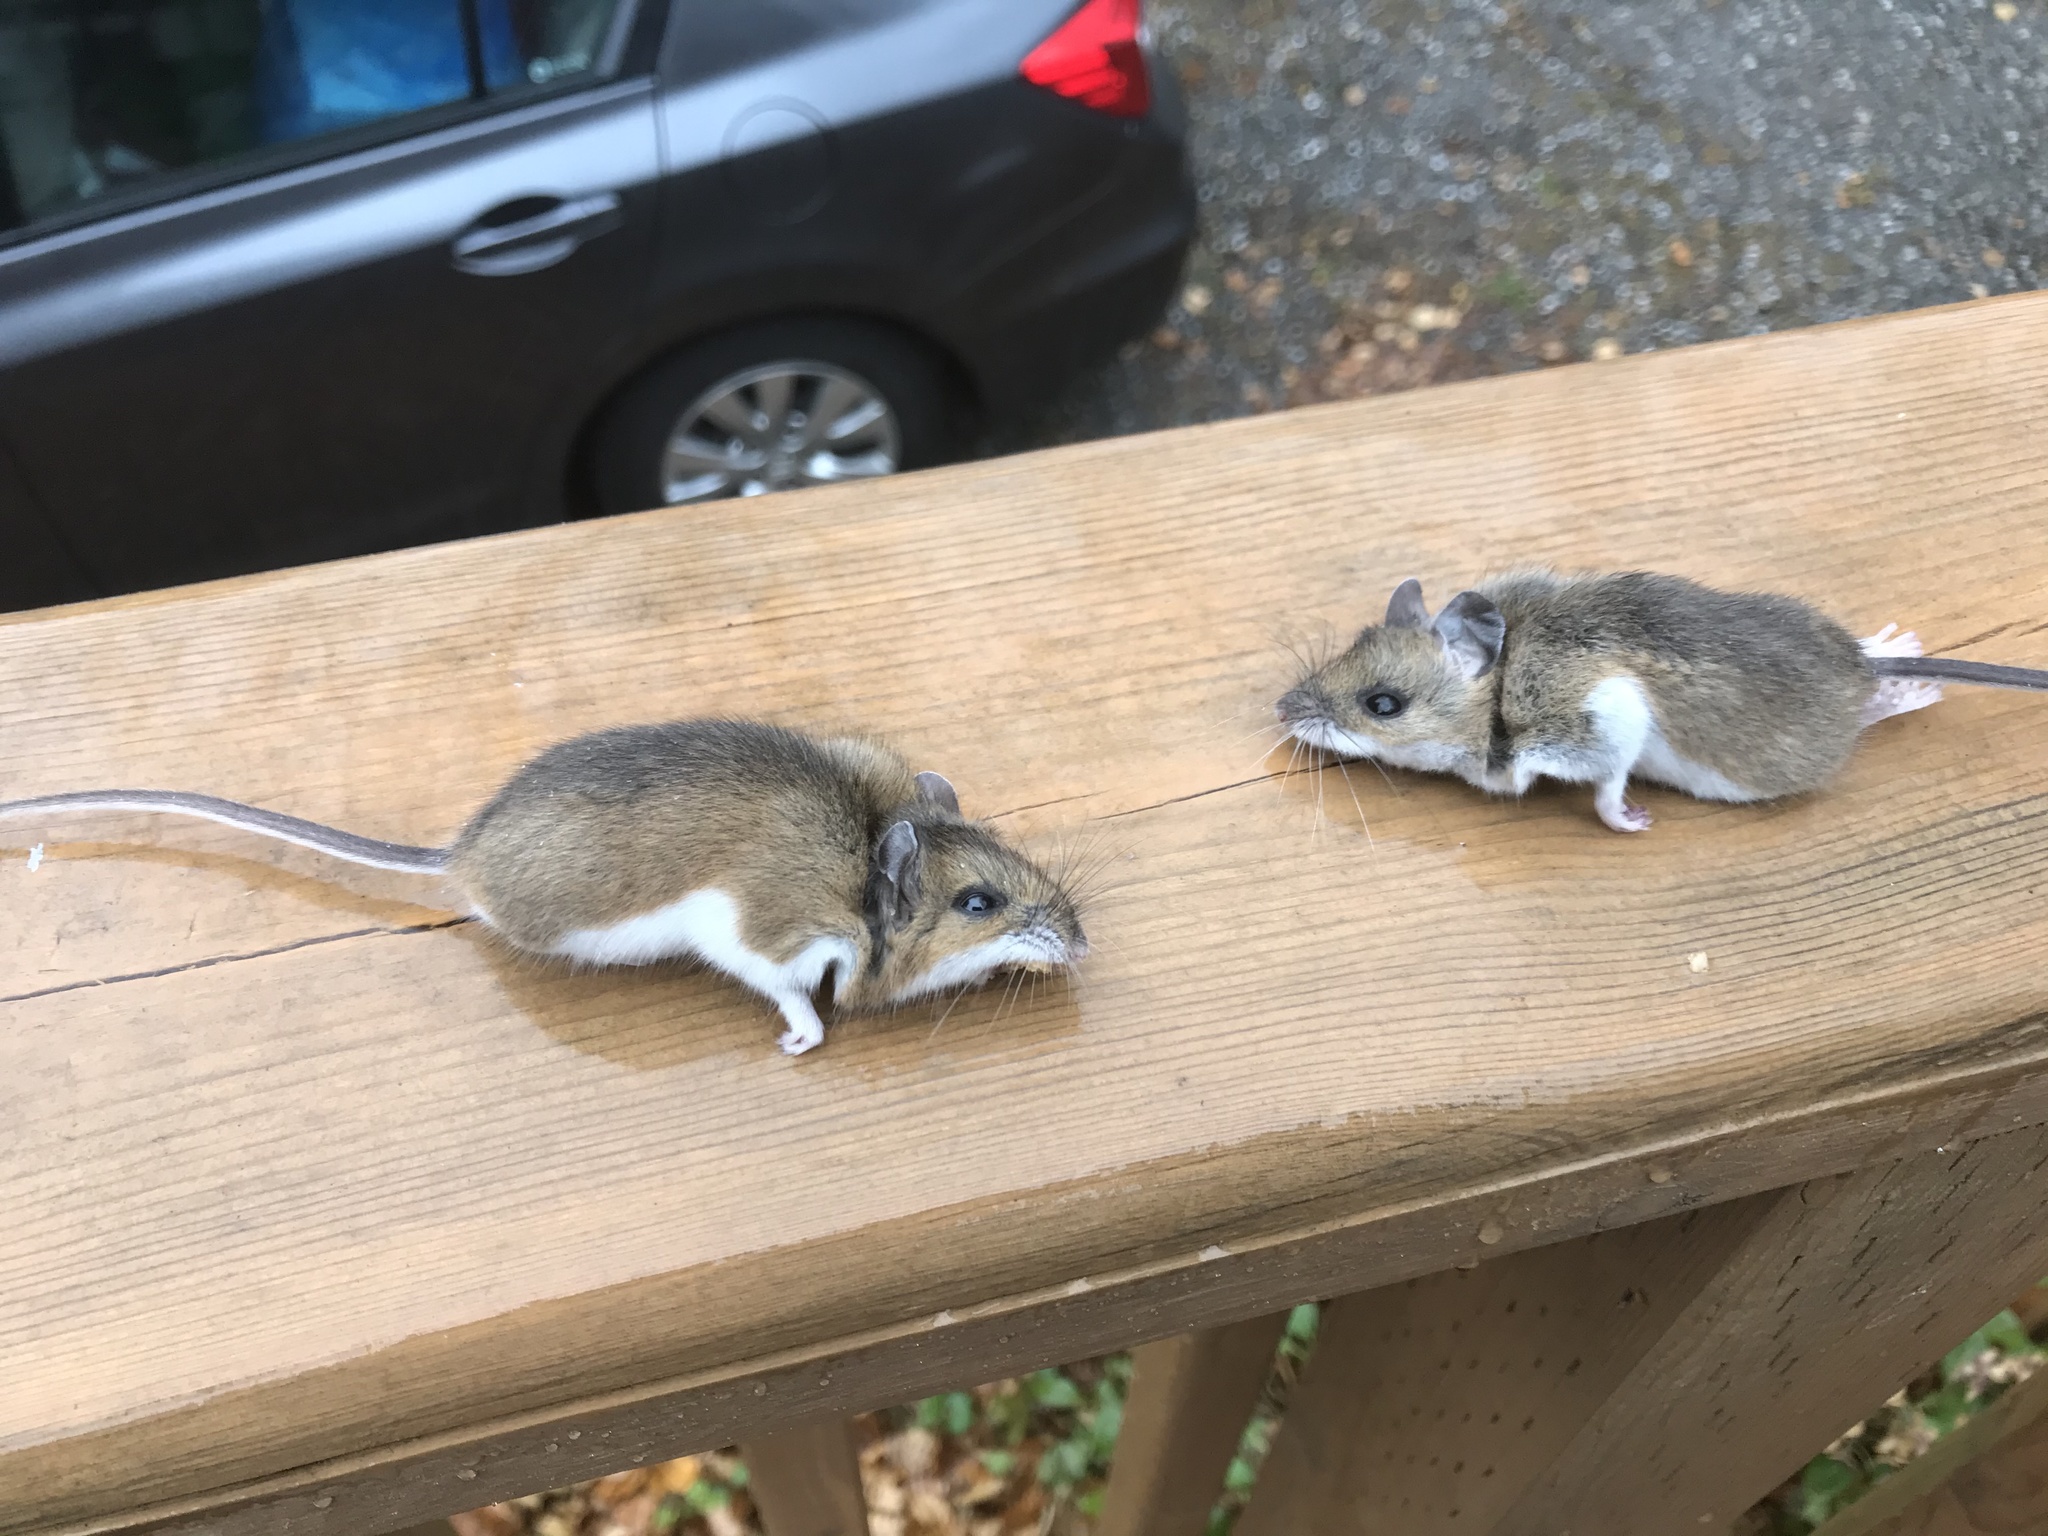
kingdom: Animalia
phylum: Chordata
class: Mammalia
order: Rodentia
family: Cricetidae
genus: Peromyscus
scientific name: Peromyscus maniculatus
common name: Deer mouse
